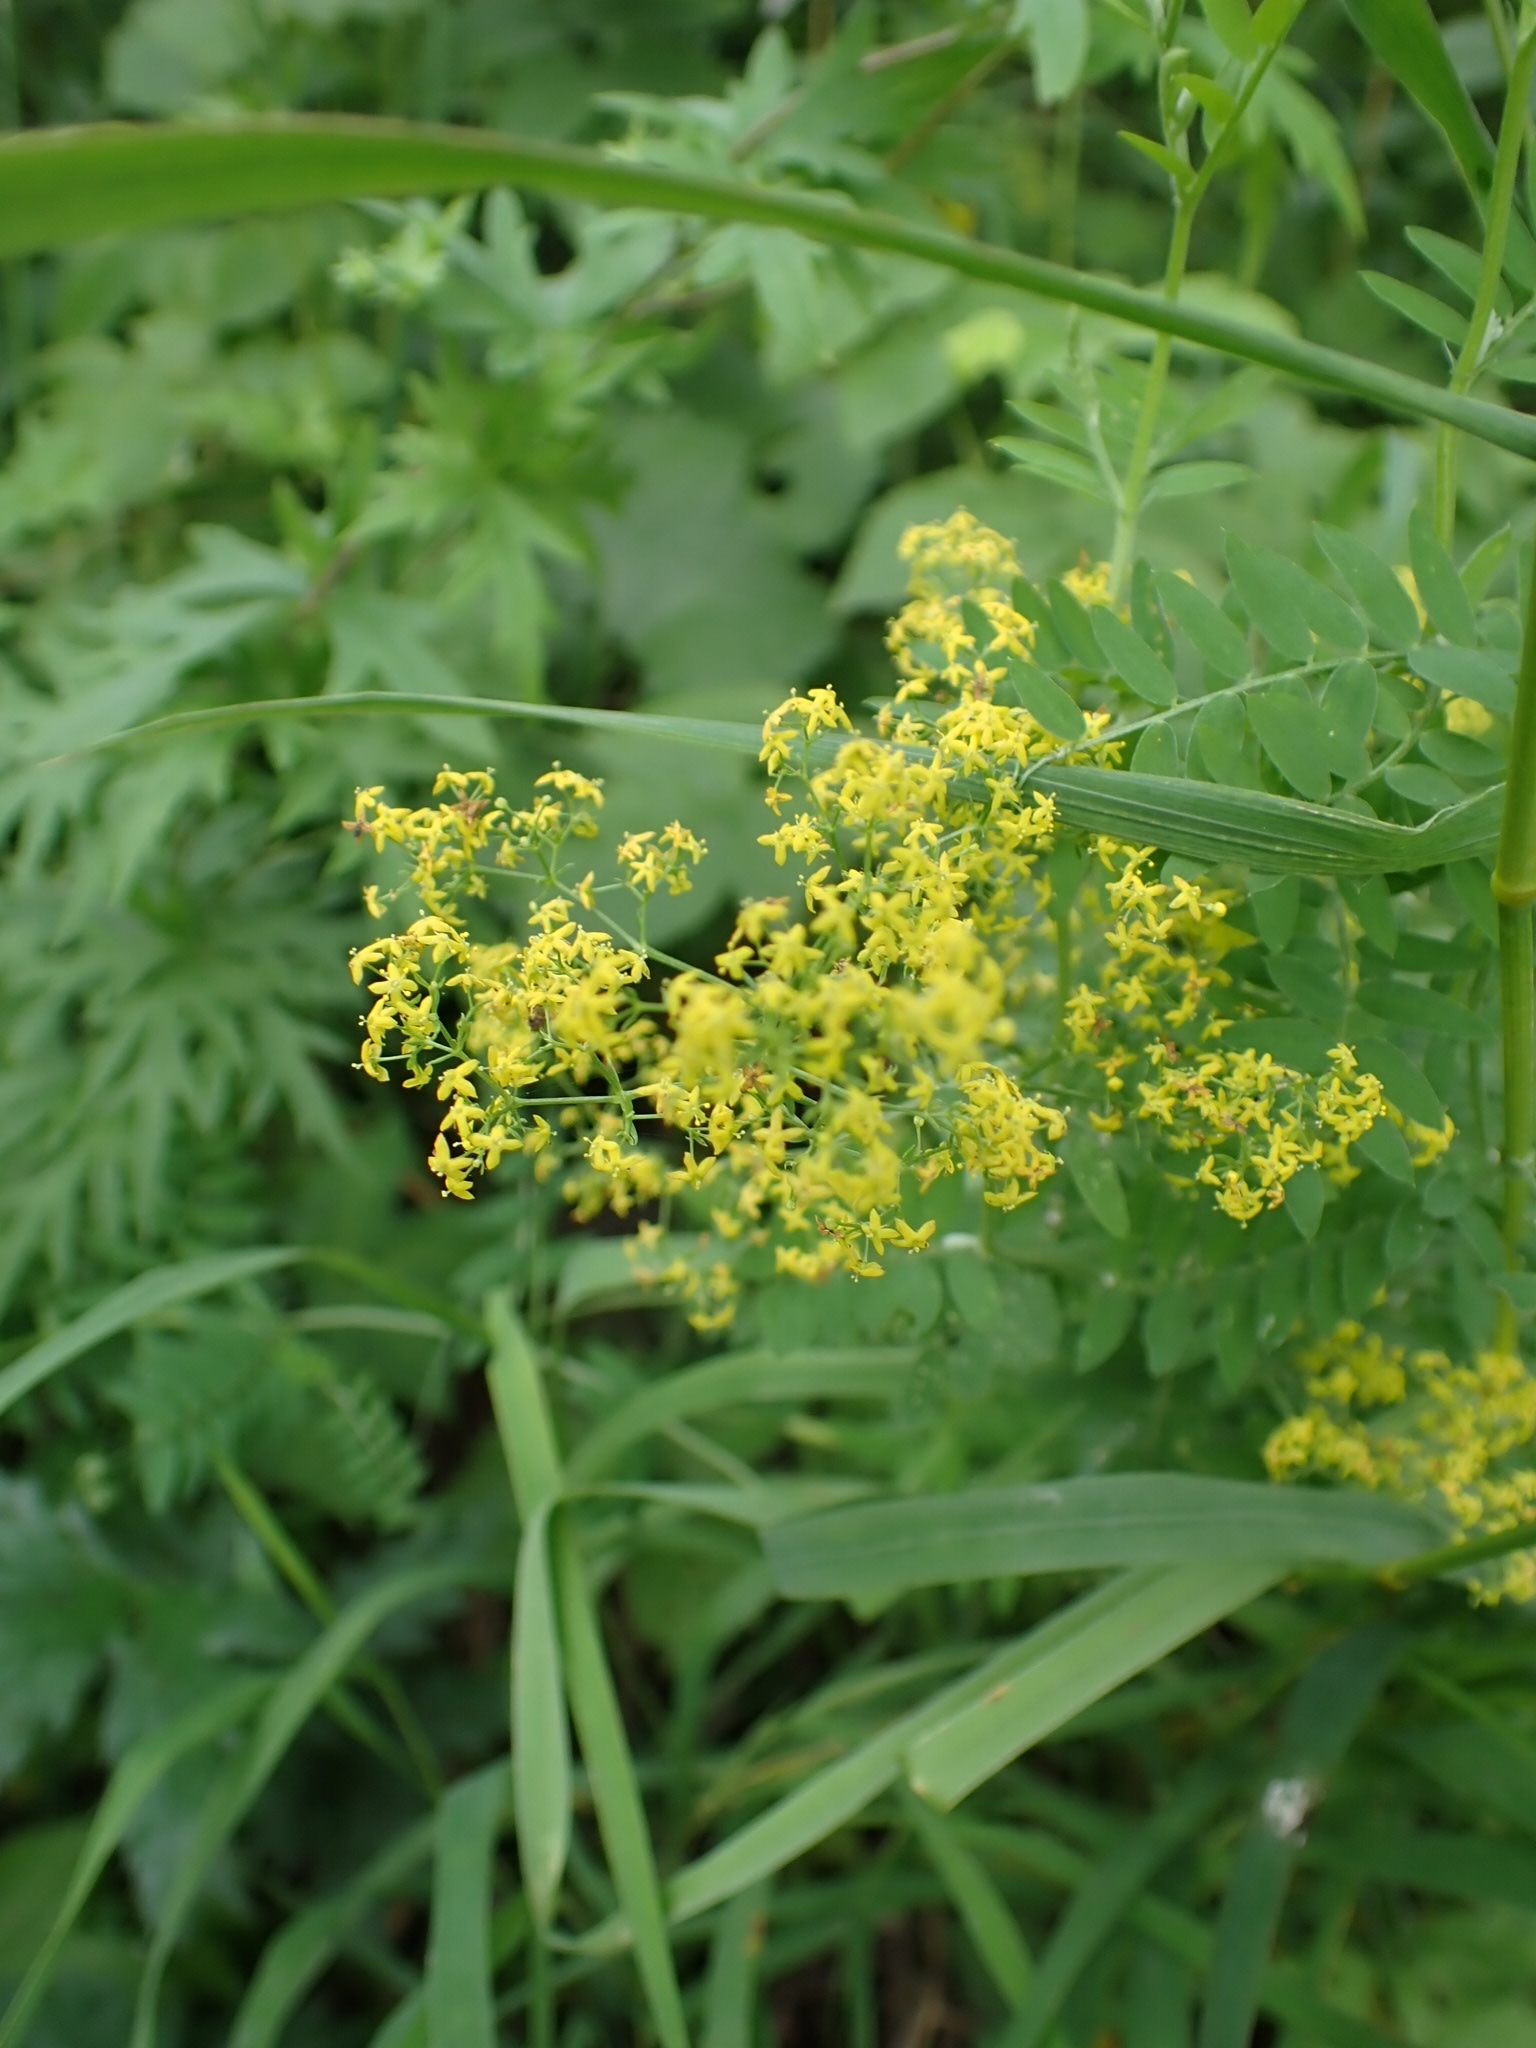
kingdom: Plantae
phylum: Tracheophyta
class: Magnoliopsida
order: Gentianales
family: Rubiaceae
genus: Galium
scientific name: Galium verum
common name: Lady's bedstraw
